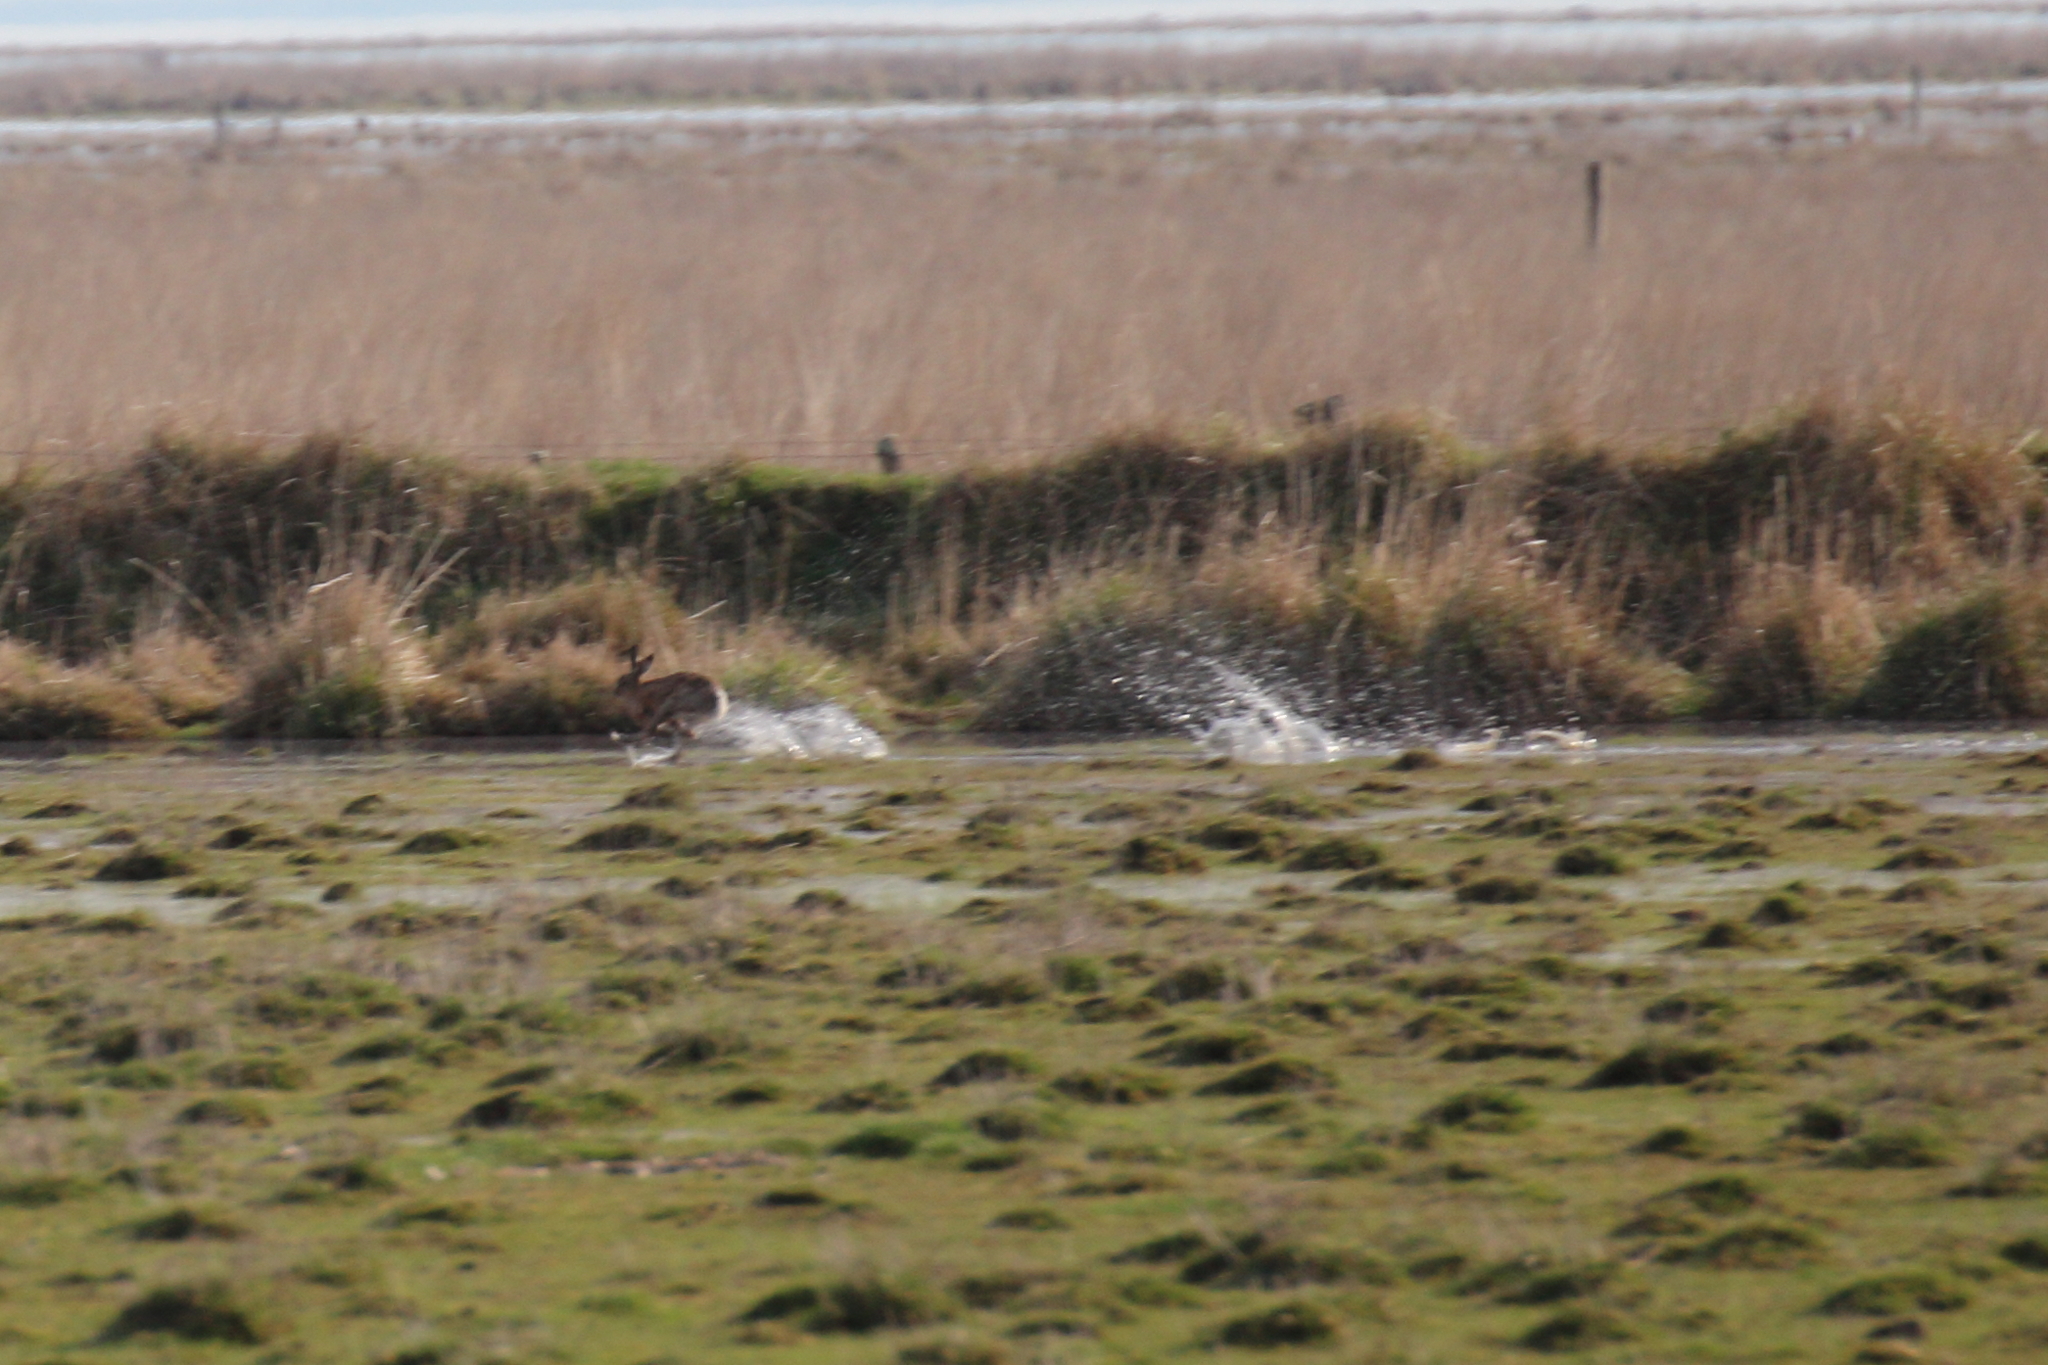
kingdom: Animalia
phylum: Chordata
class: Mammalia
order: Lagomorpha
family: Leporidae
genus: Lepus
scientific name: Lepus europaeus
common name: European hare
